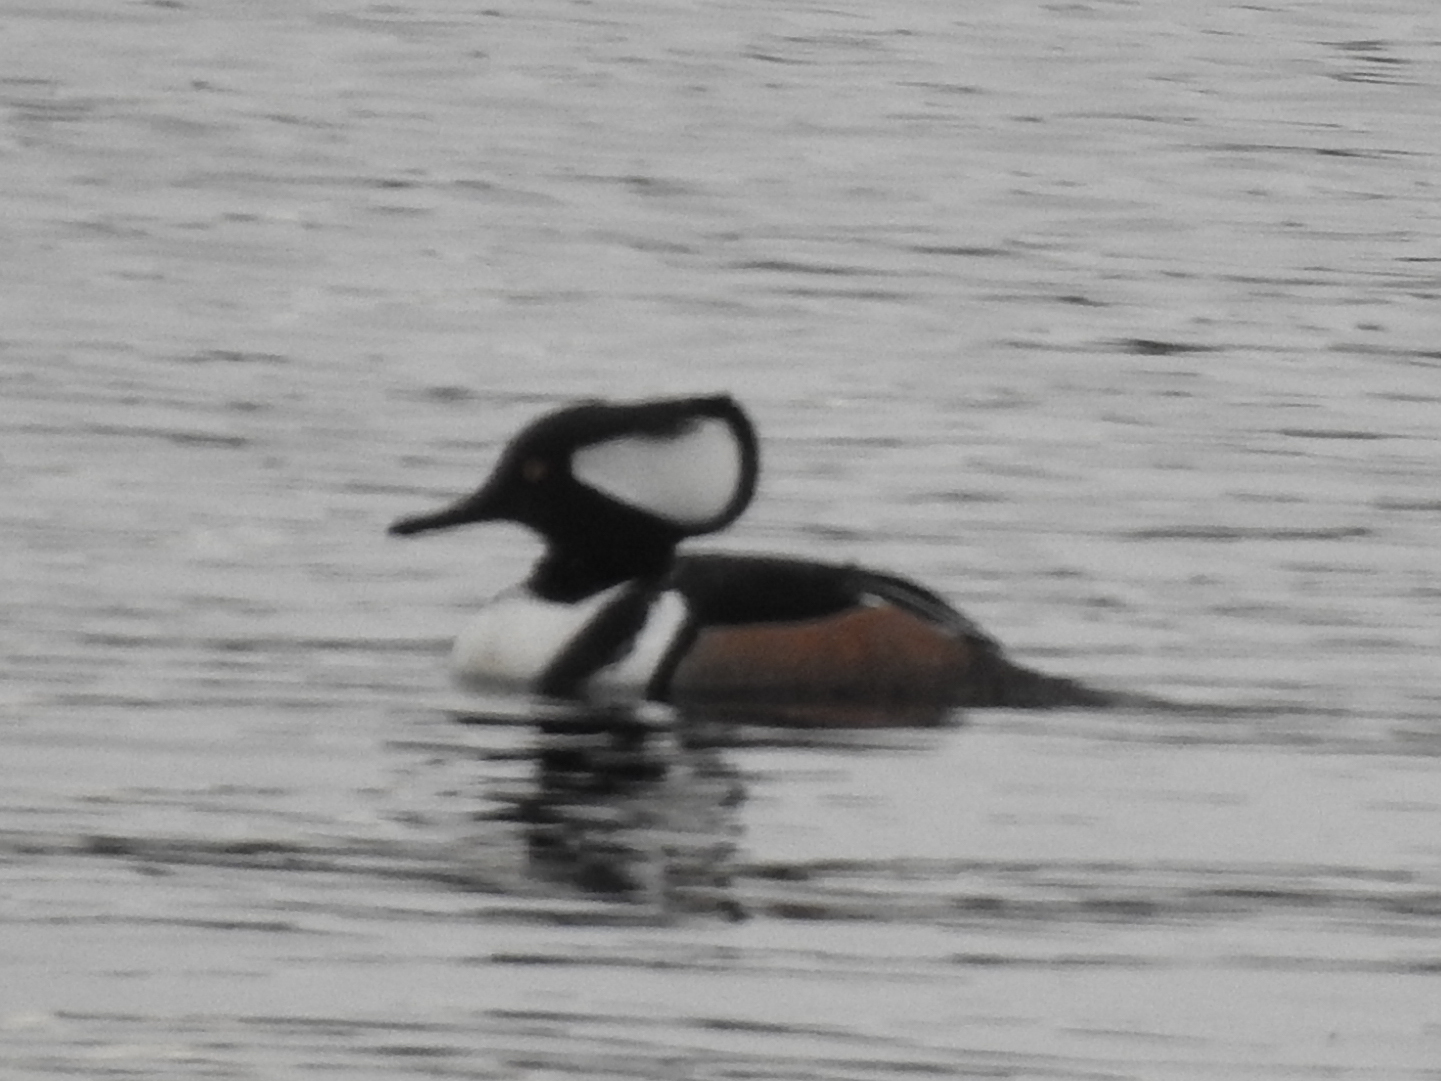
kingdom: Animalia
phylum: Chordata
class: Aves
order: Anseriformes
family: Anatidae
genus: Lophodytes
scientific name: Lophodytes cucullatus
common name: Hooded merganser
